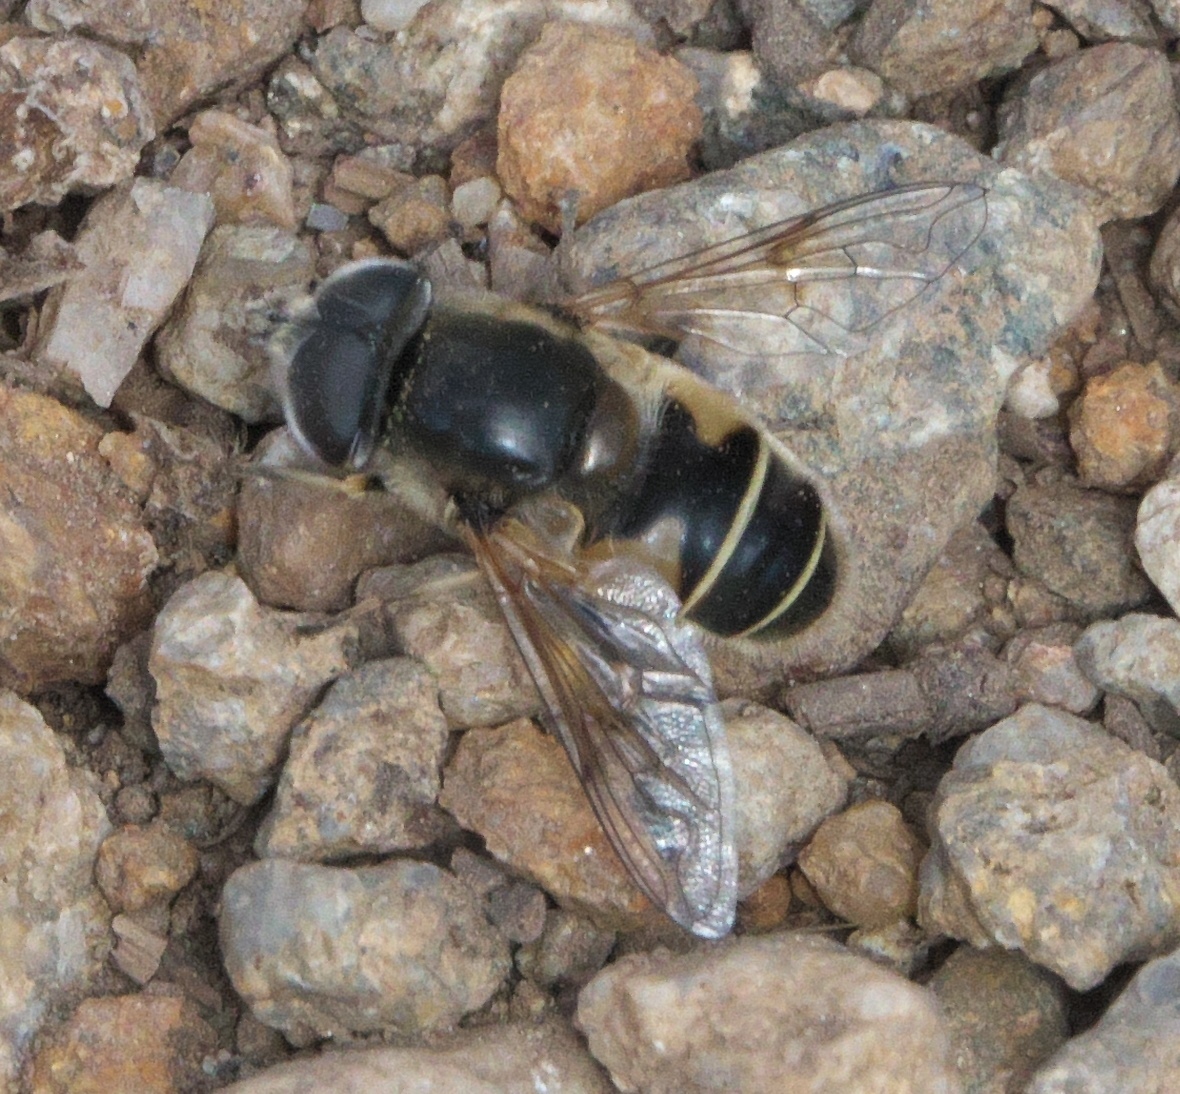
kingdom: Animalia
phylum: Arthropoda
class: Insecta
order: Diptera
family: Syrphidae
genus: Eristalis
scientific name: Eristalis hirta
